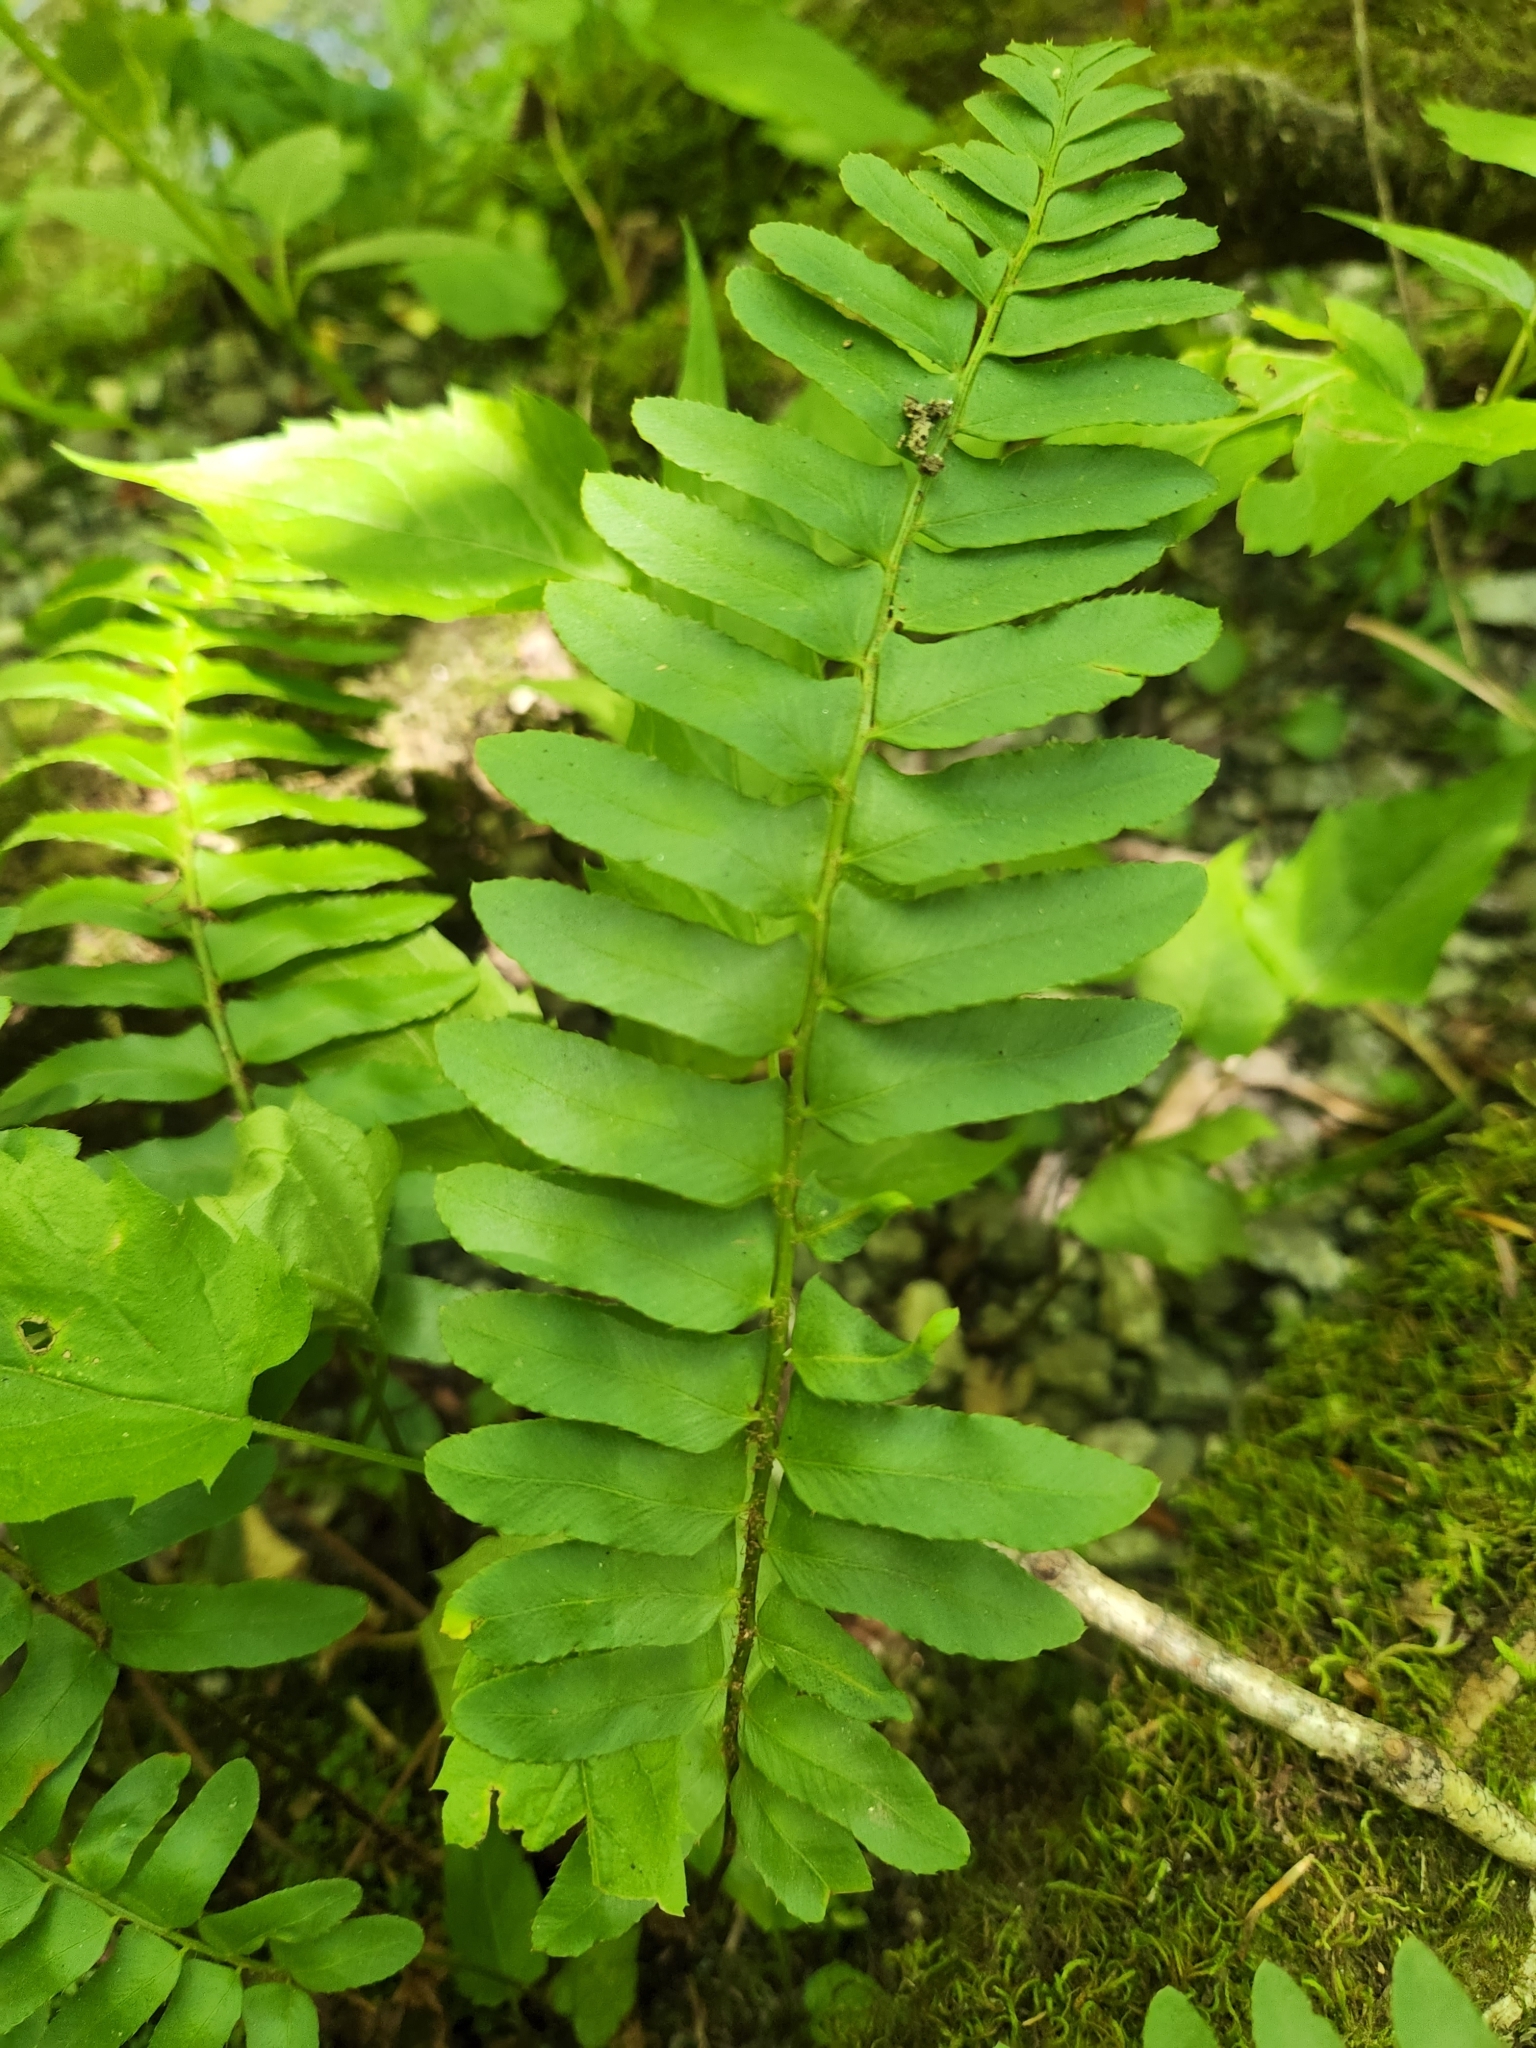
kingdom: Plantae
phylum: Tracheophyta
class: Polypodiopsida
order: Polypodiales
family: Dryopteridaceae
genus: Polystichum
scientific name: Polystichum acrostichoides
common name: Christmas fern
